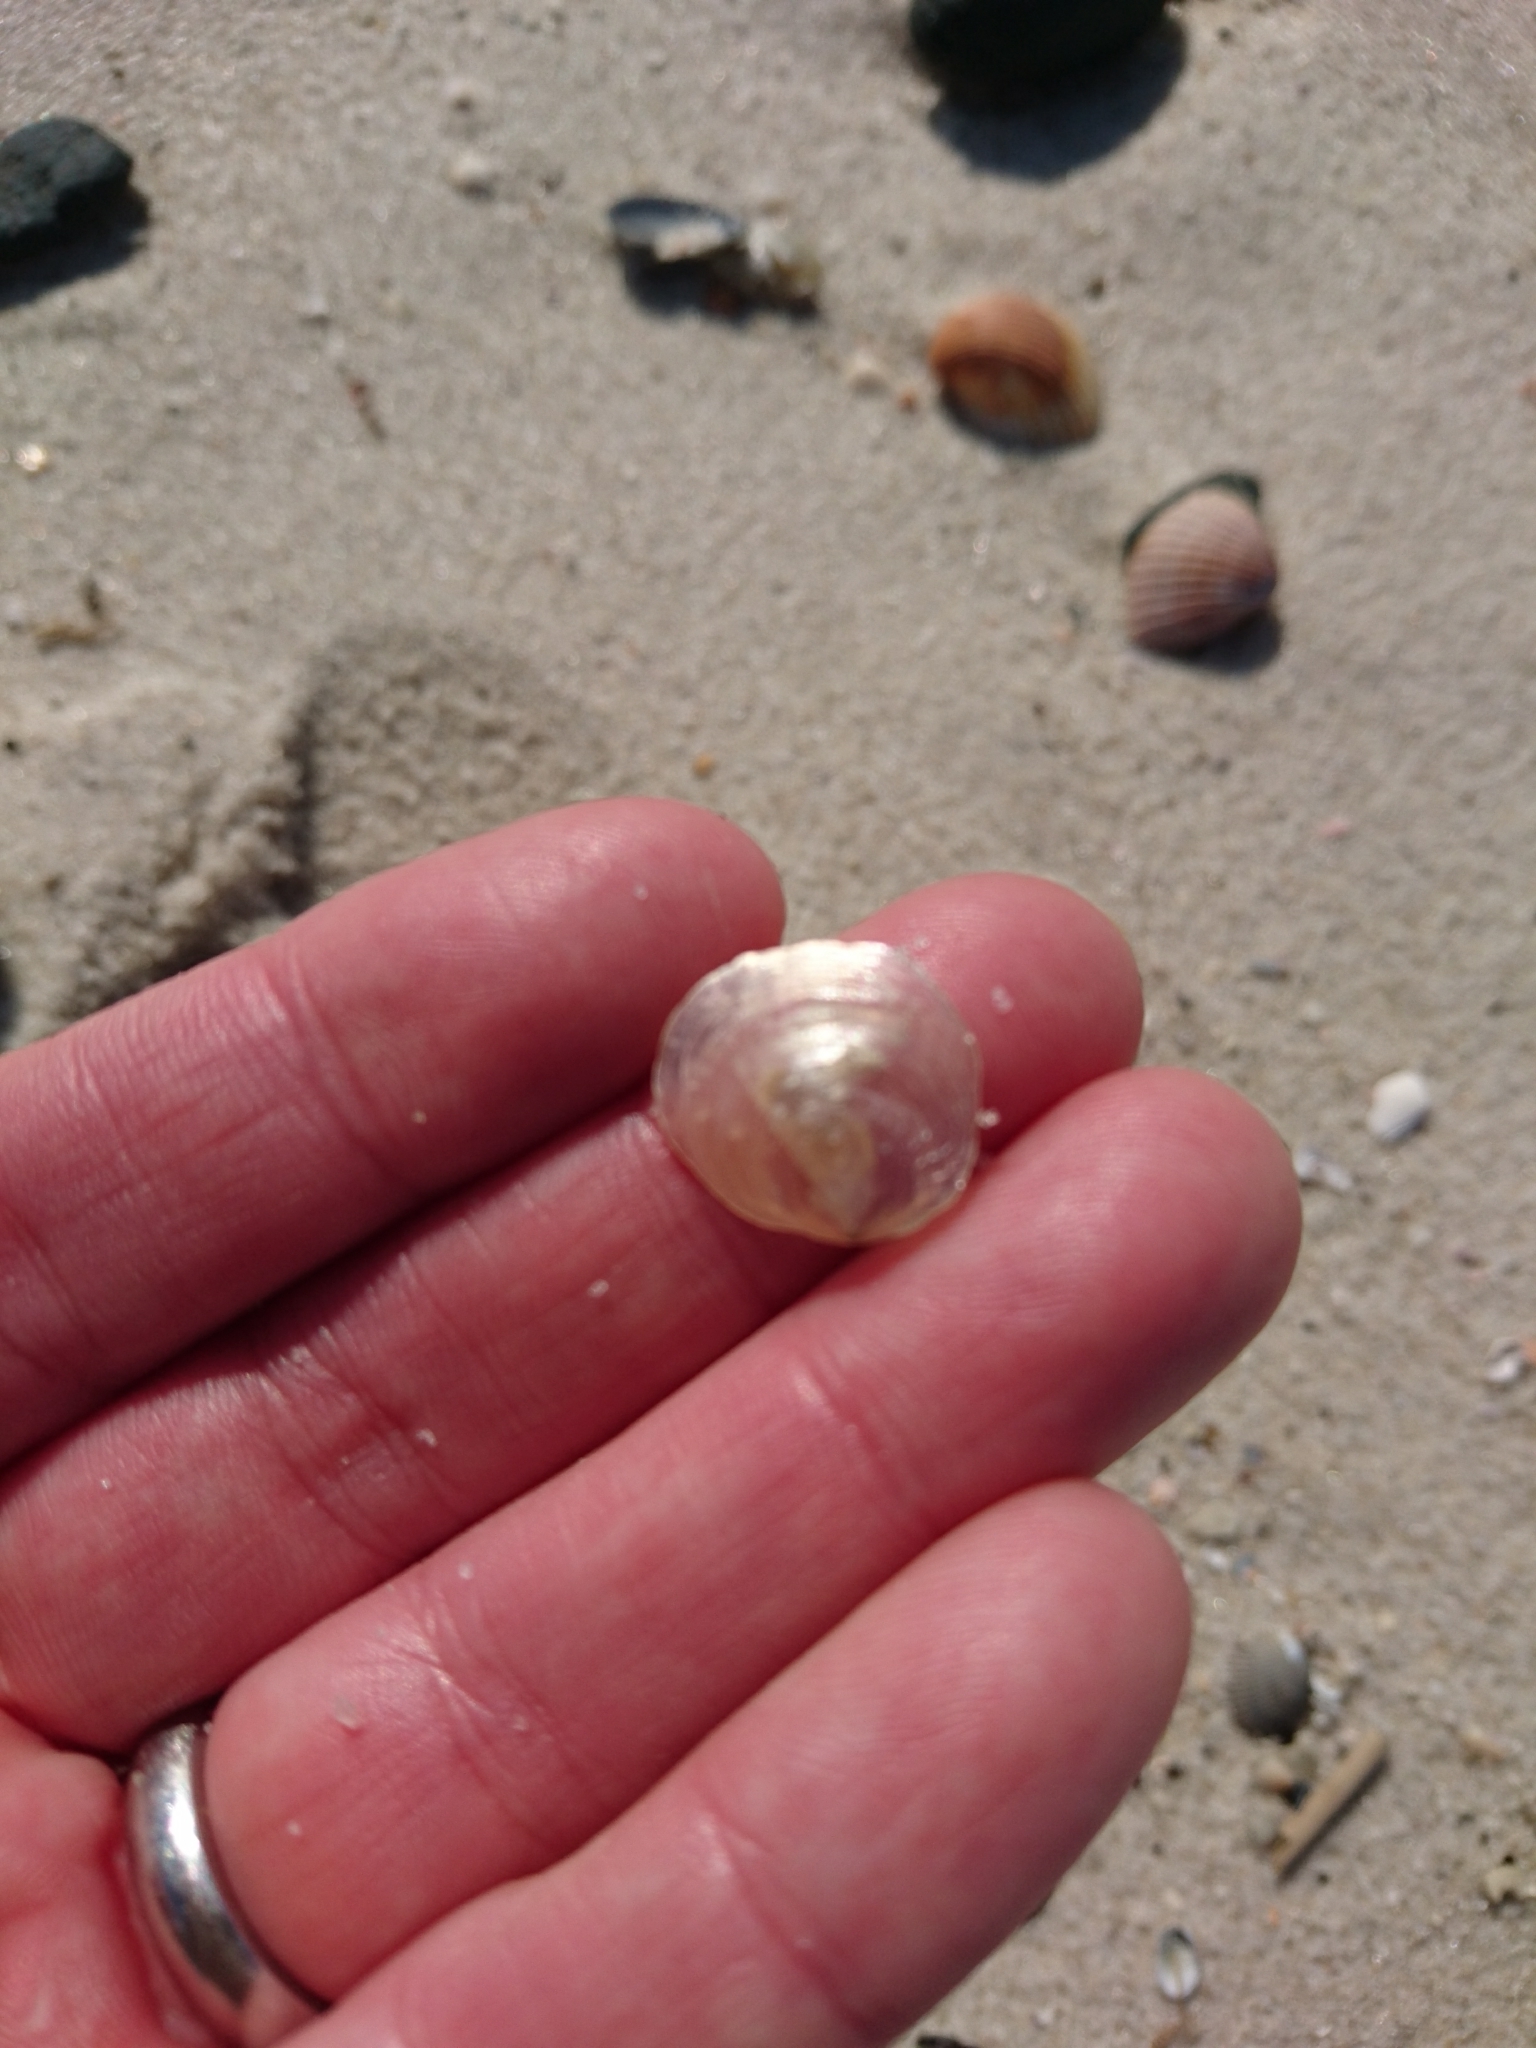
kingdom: Animalia
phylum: Mollusca
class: Bivalvia
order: Pectinida
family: Anomiidae
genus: Anomia
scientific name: Anomia simplex
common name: Common jingle shell
